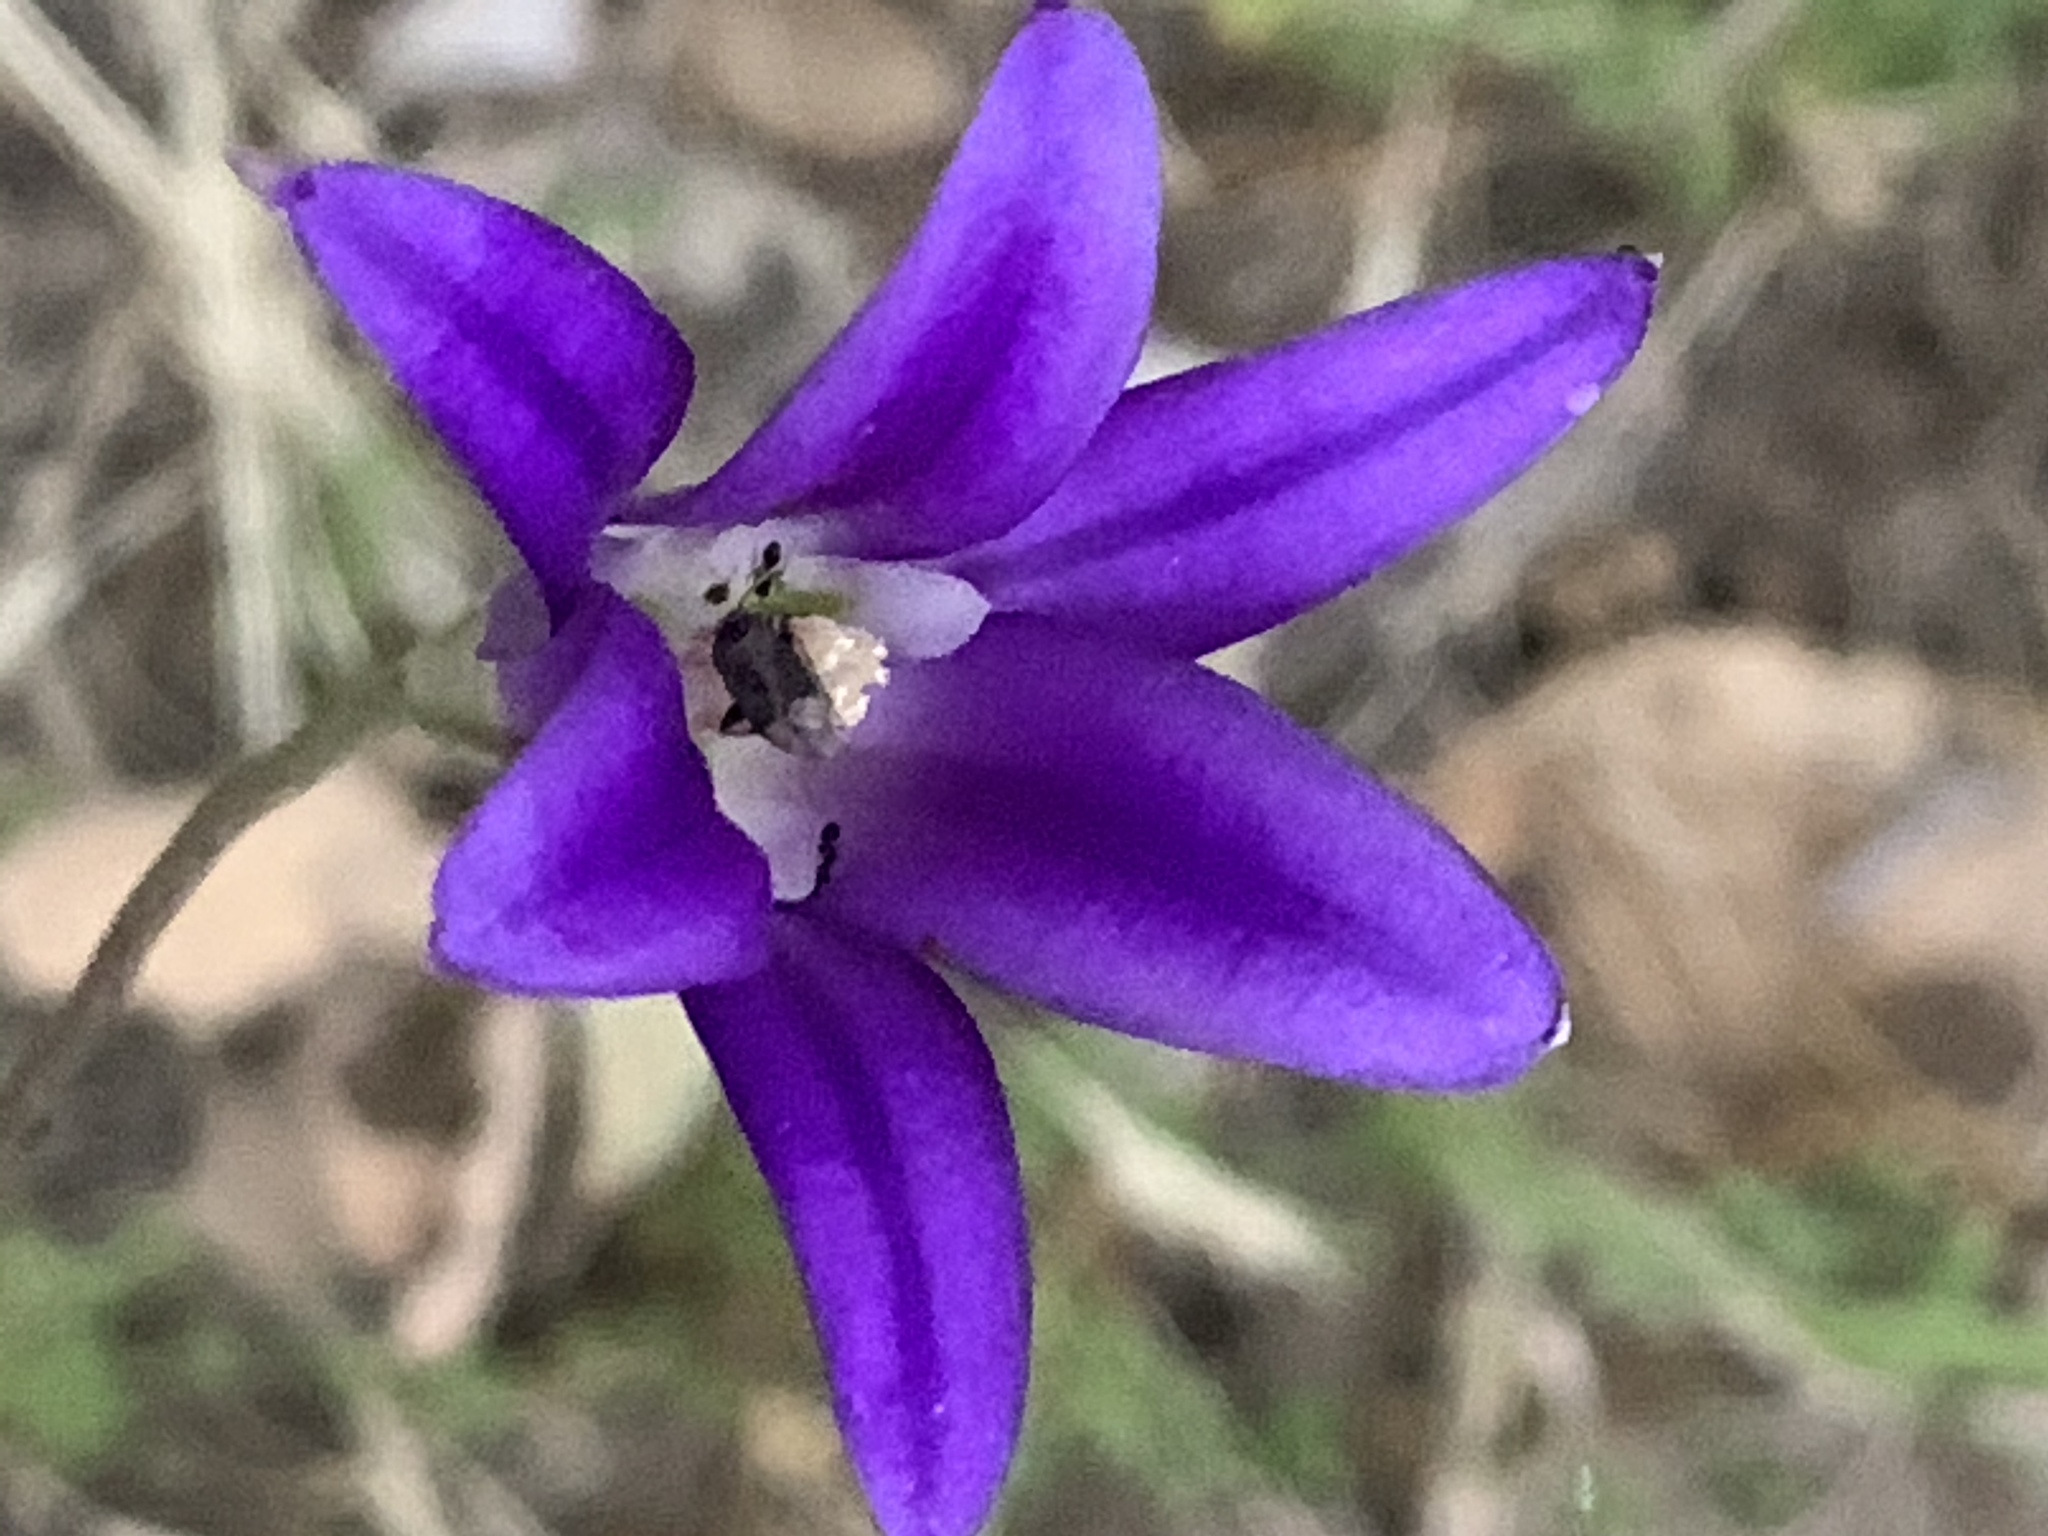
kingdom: Plantae
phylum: Tracheophyta
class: Liliopsida
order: Asparagales
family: Asparagaceae
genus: Brodiaea
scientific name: Brodiaea elegans
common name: Elegant cluster-lily
